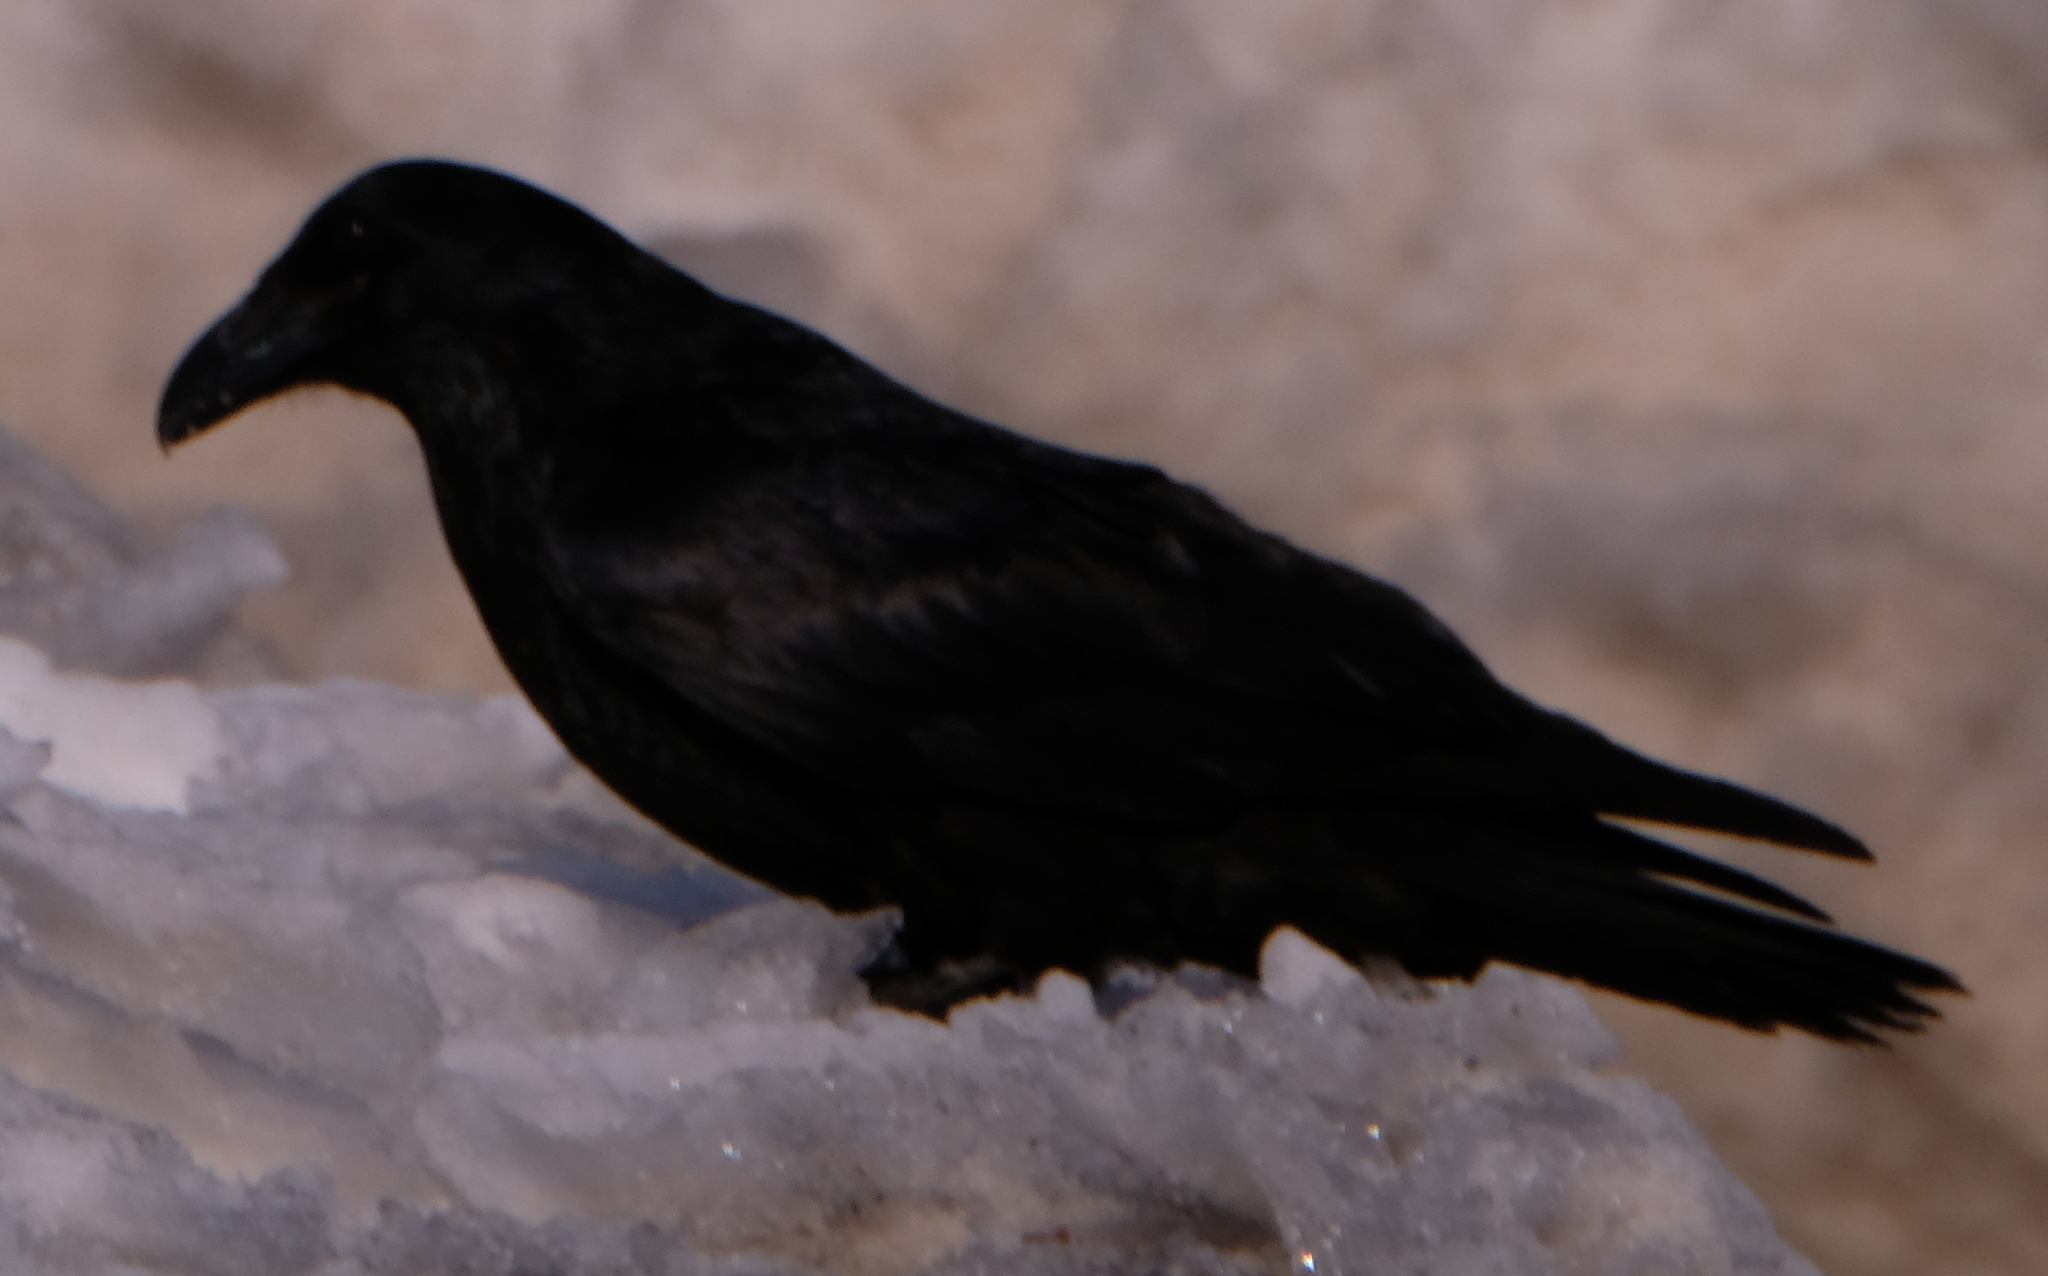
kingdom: Animalia
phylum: Chordata
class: Aves
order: Passeriformes
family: Corvidae
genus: Corvus
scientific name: Corvus corax
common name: Common raven
